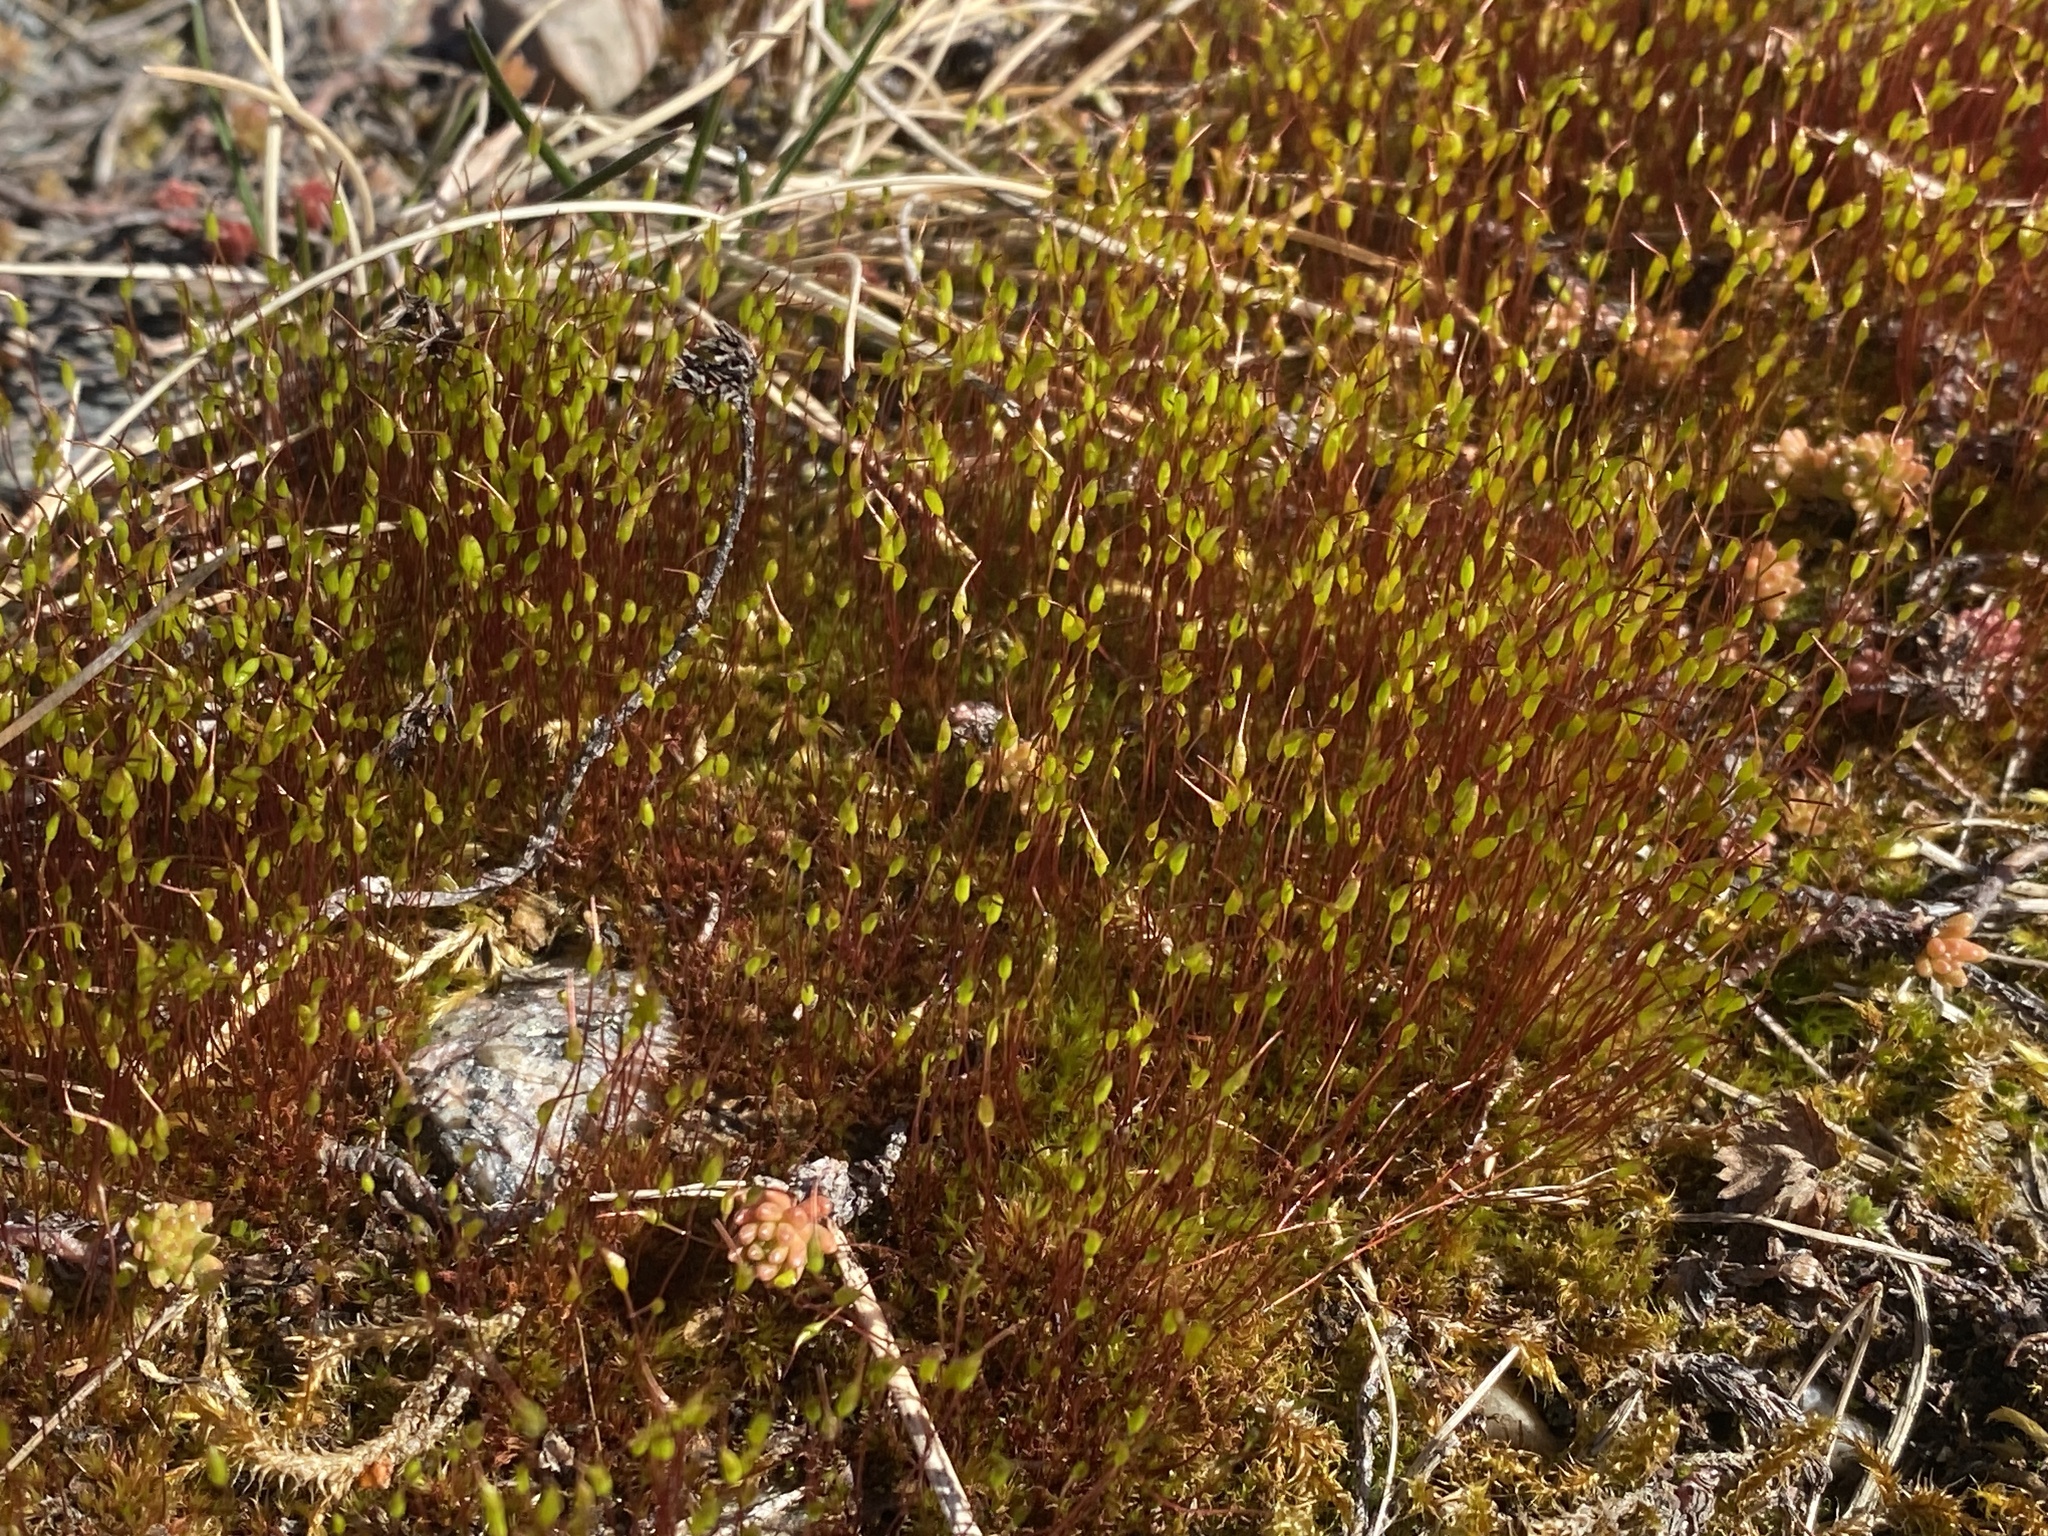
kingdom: Plantae
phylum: Bryophyta
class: Bryopsida
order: Dicranales
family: Ditrichaceae
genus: Ceratodon
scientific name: Ceratodon purpureus
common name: Redshank
